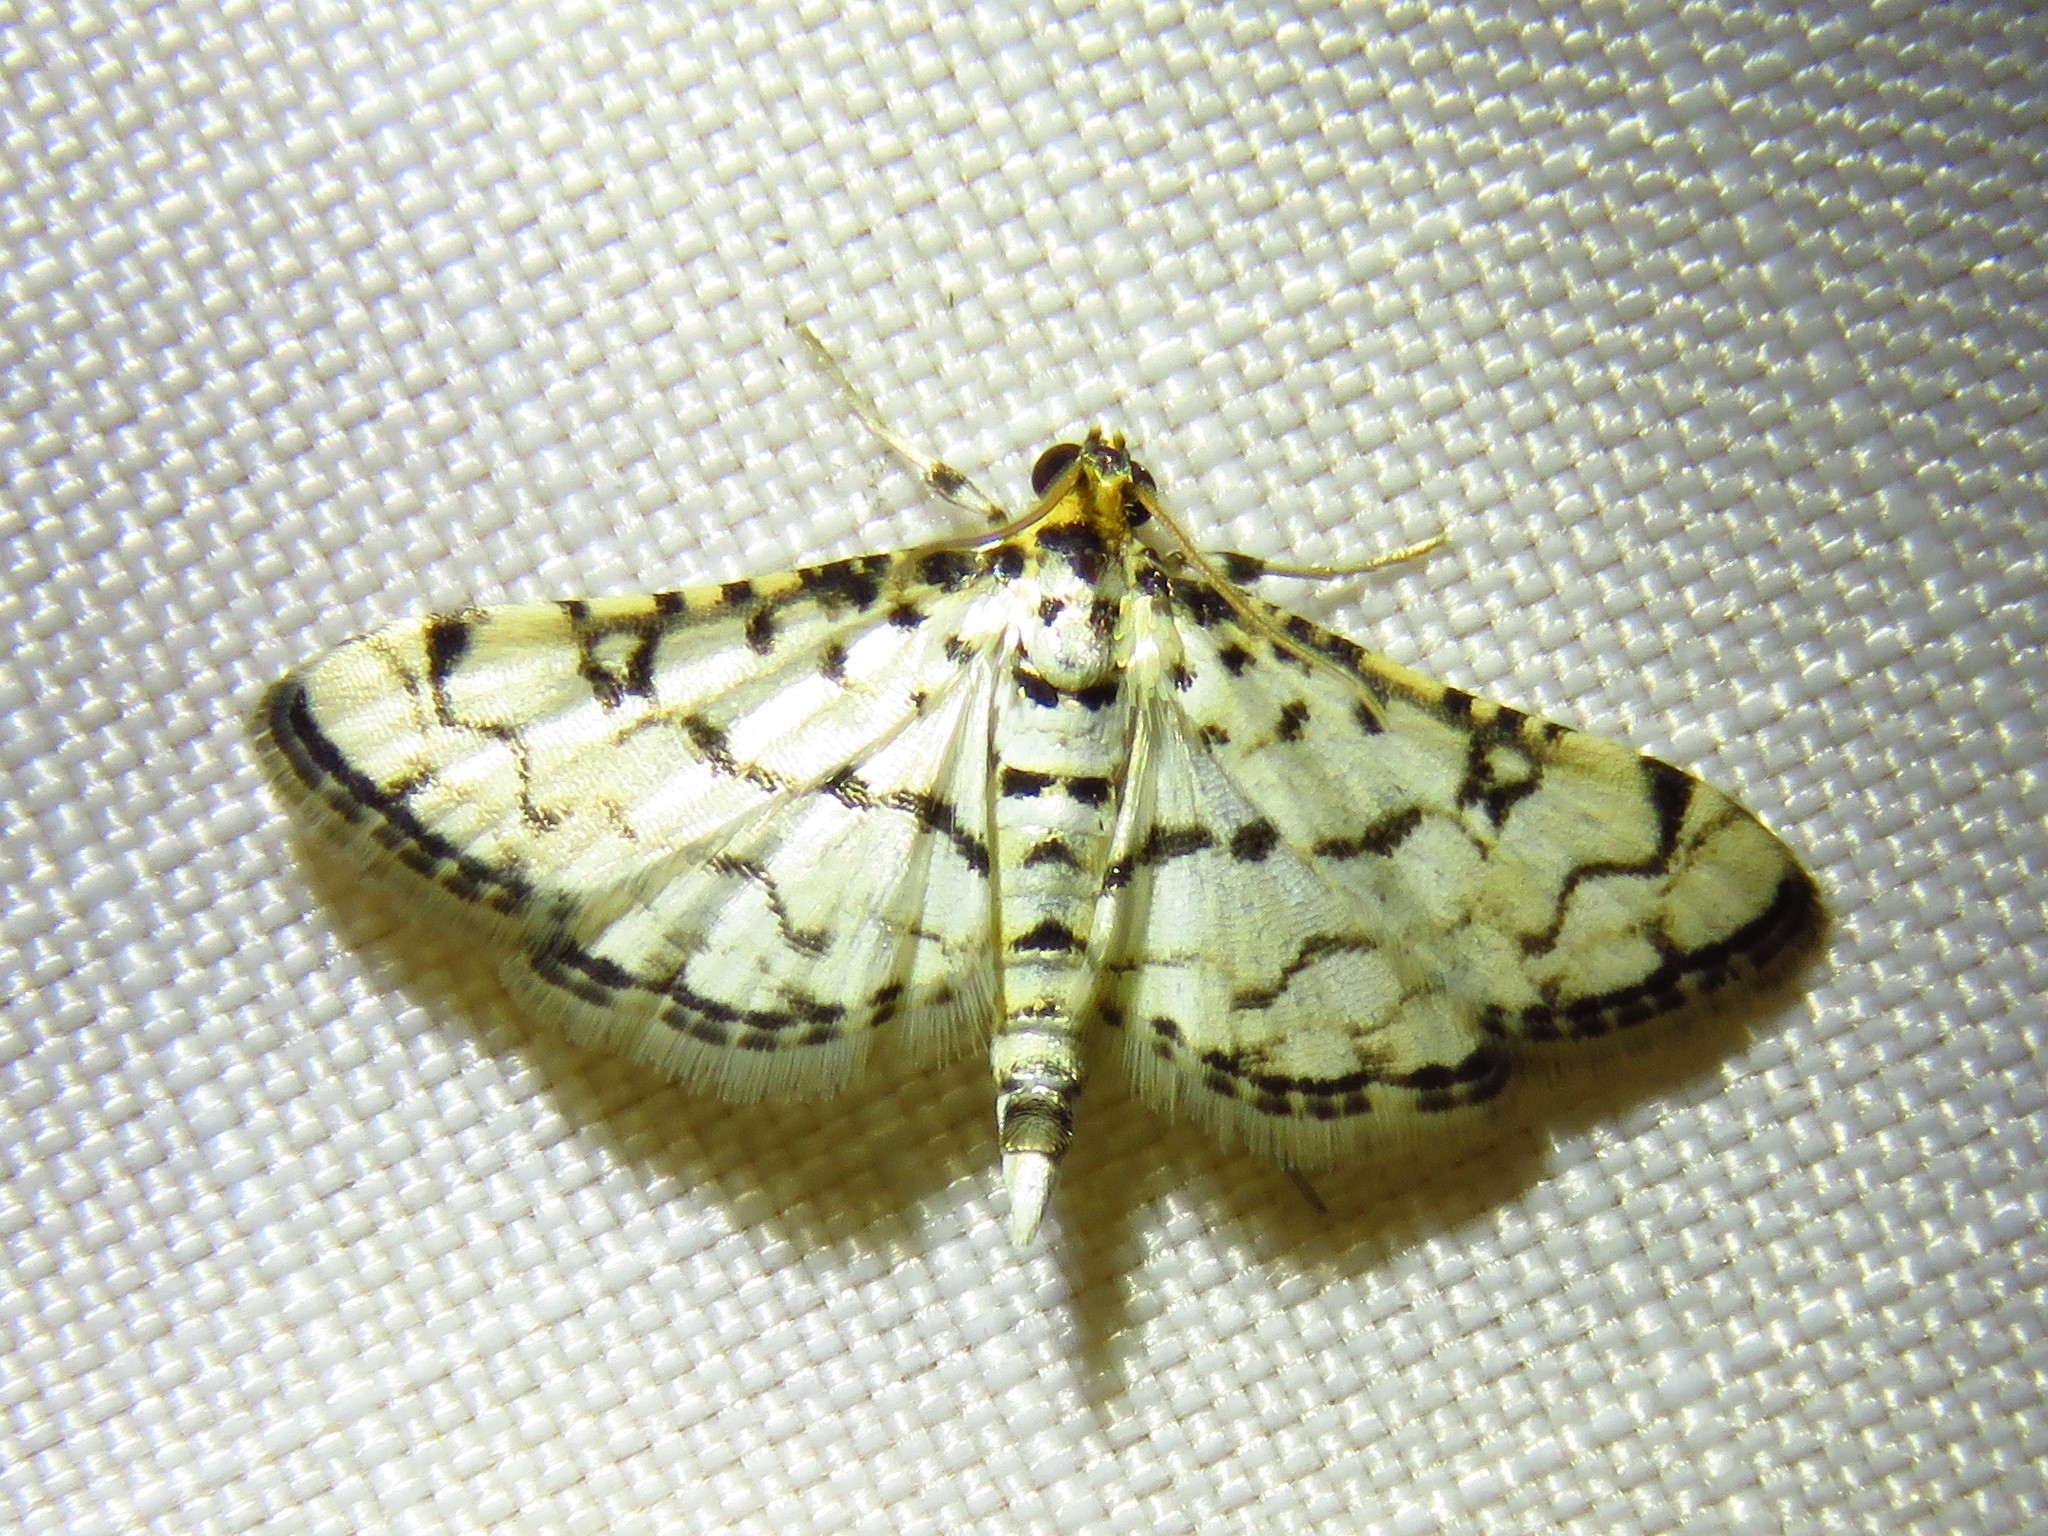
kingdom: Animalia
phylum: Arthropoda
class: Insecta
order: Lepidoptera
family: Crambidae
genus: Hileithia
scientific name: Hileithia rehamalis
